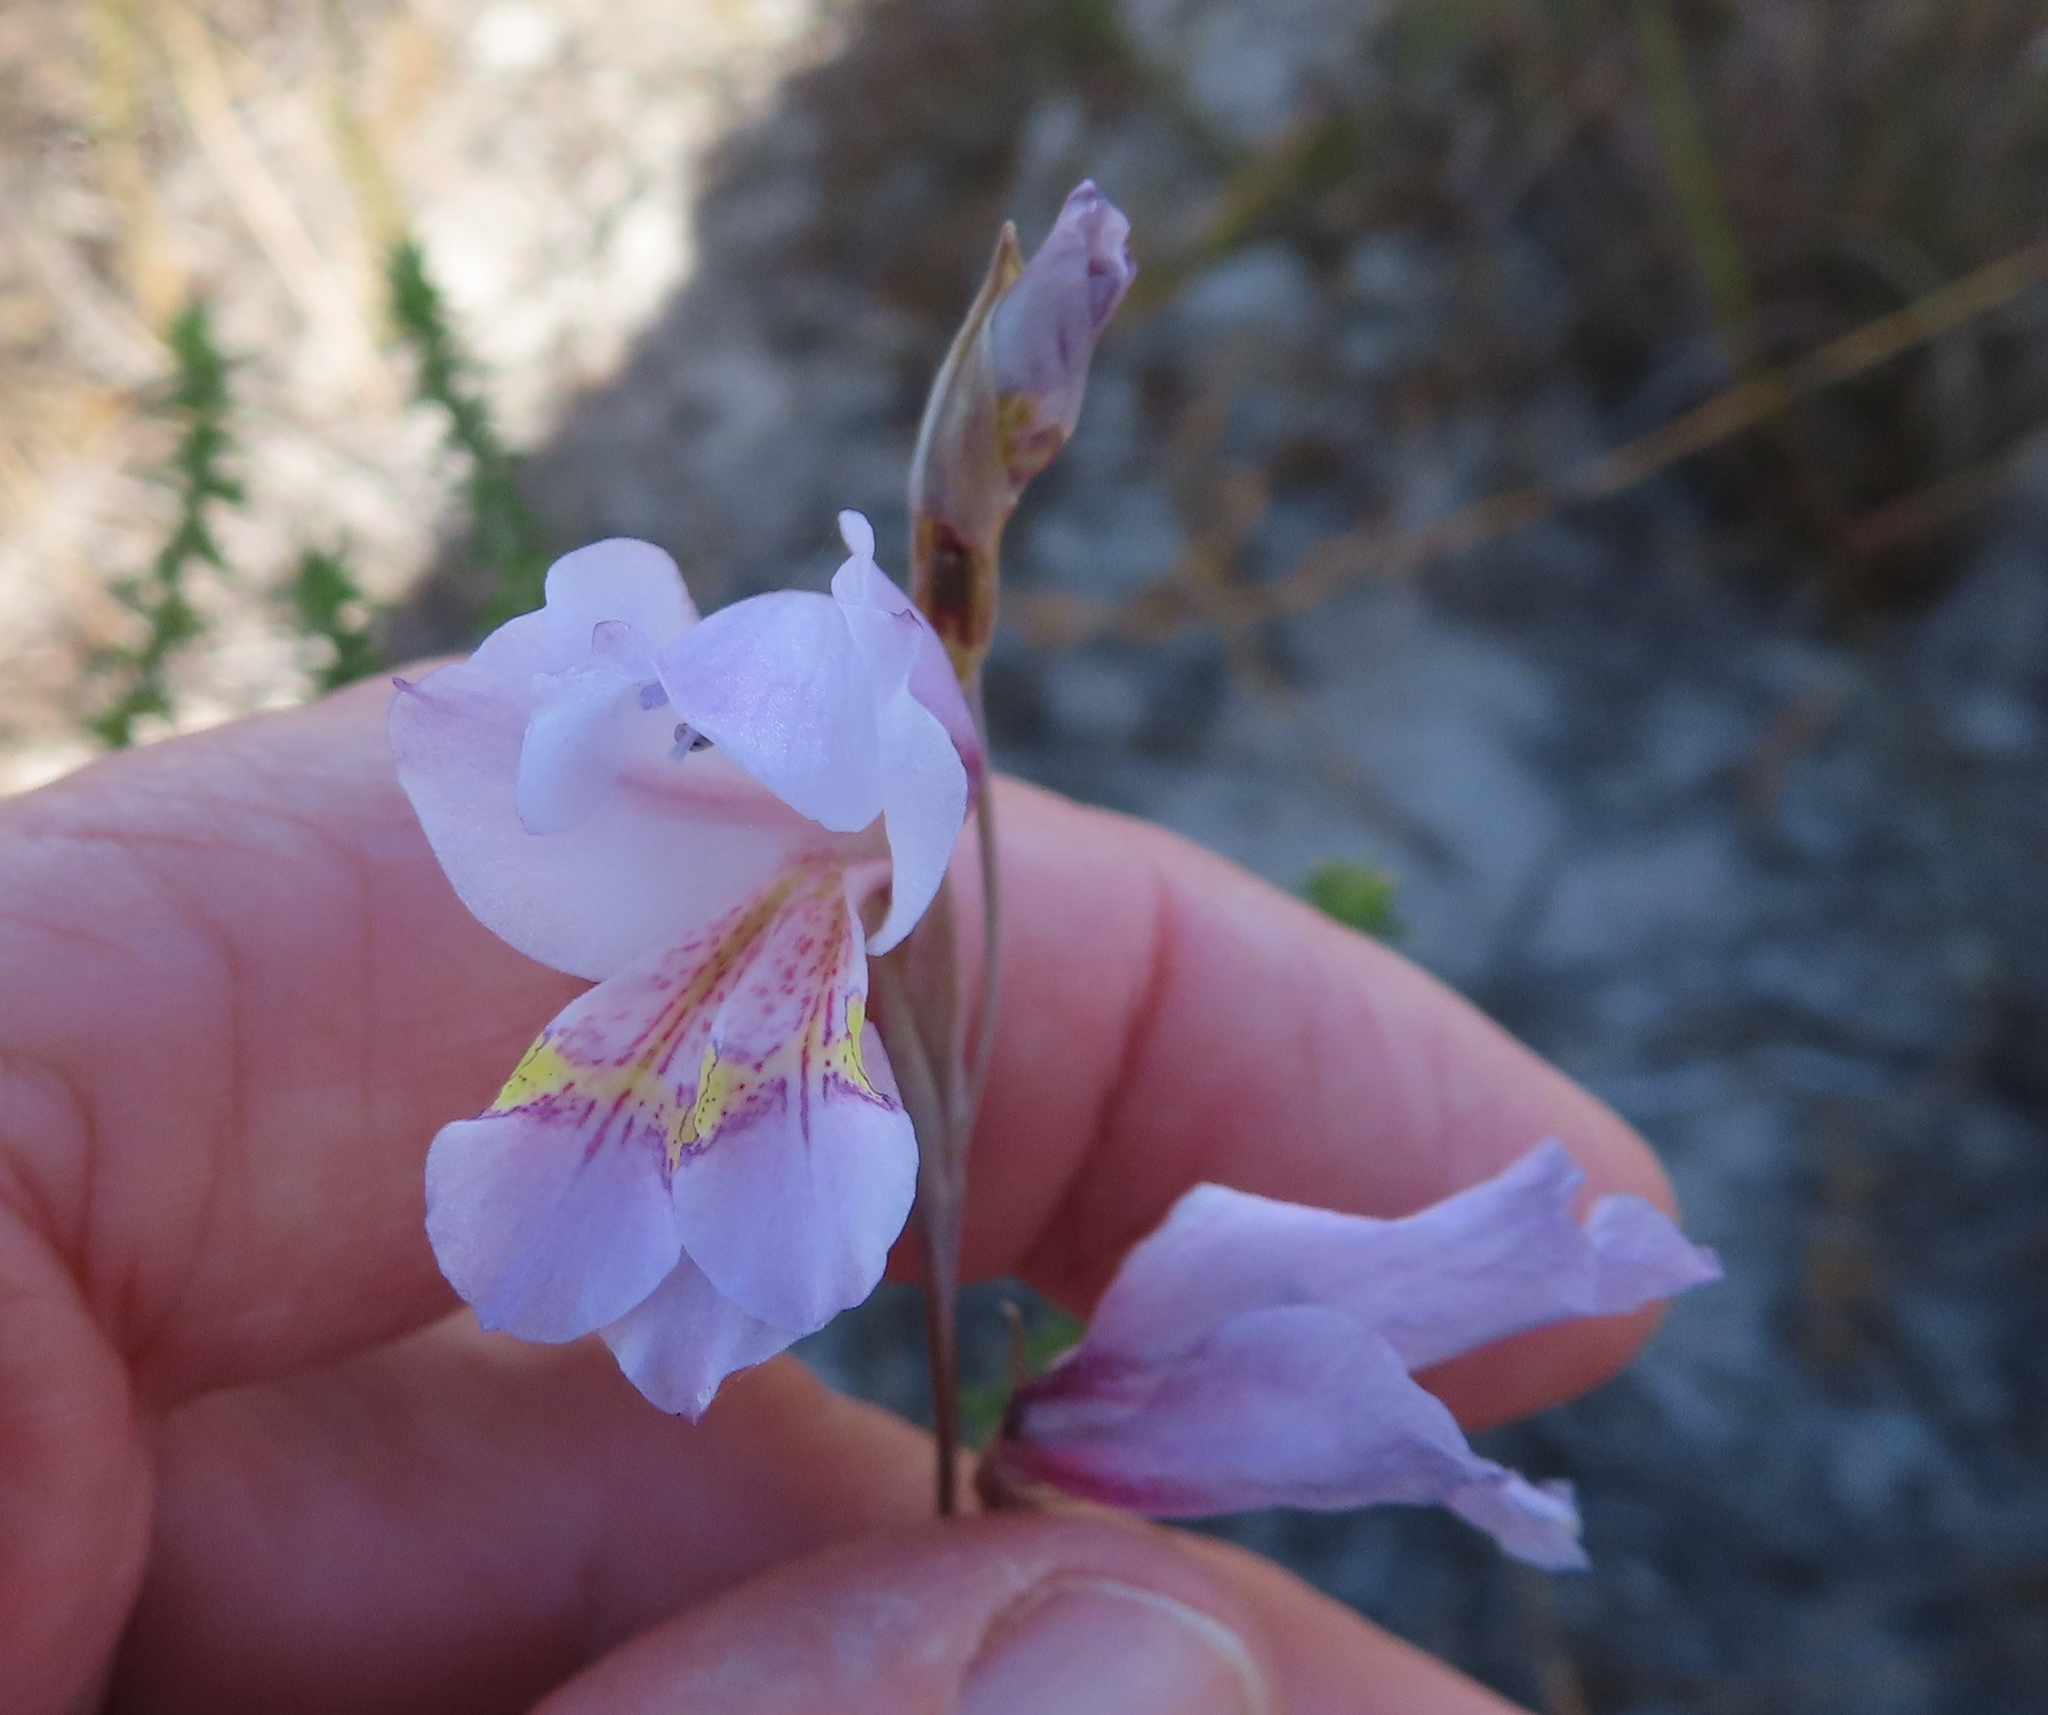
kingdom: Plantae
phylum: Tracheophyta
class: Liliopsida
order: Asparagales
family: Iridaceae
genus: Gladiolus
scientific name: Gladiolus martleyi
